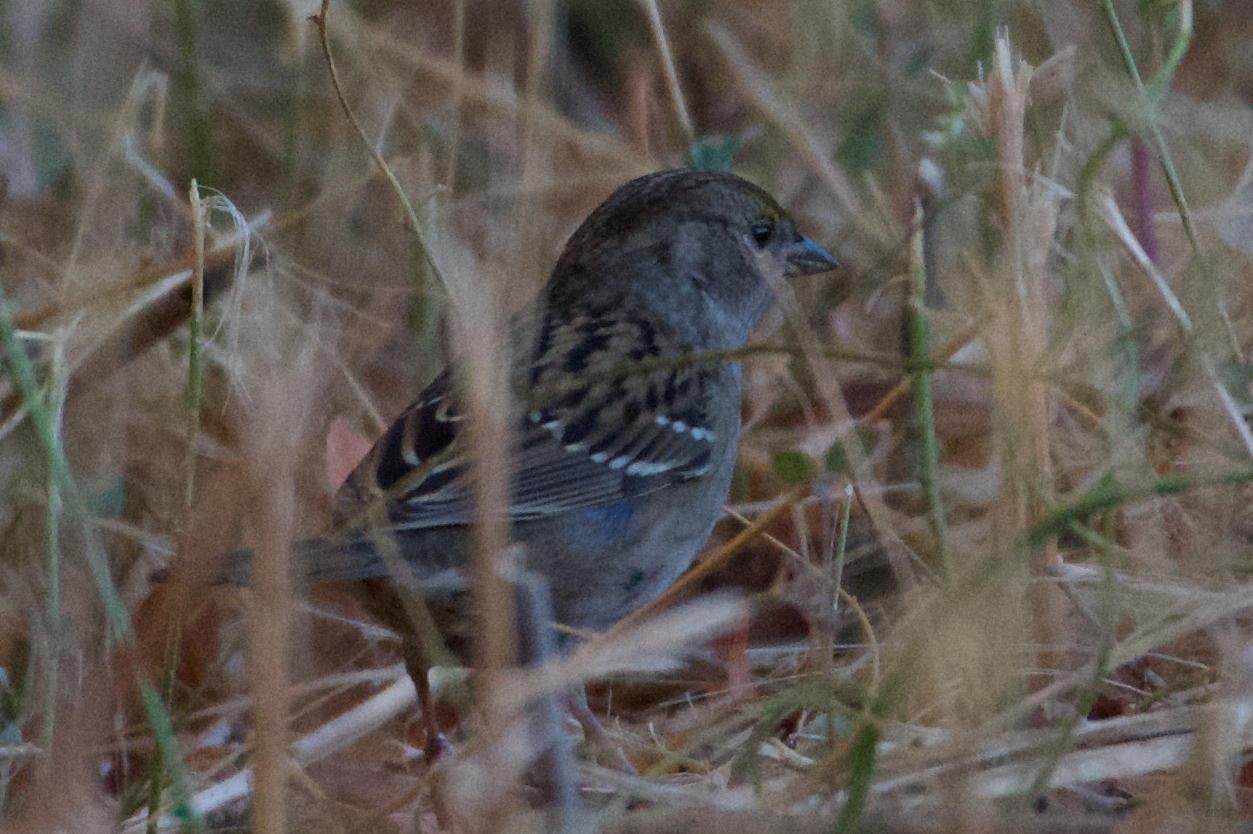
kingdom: Animalia
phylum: Chordata
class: Aves
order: Passeriformes
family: Passerellidae
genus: Zonotrichia
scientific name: Zonotrichia atricapilla
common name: Golden-crowned sparrow
